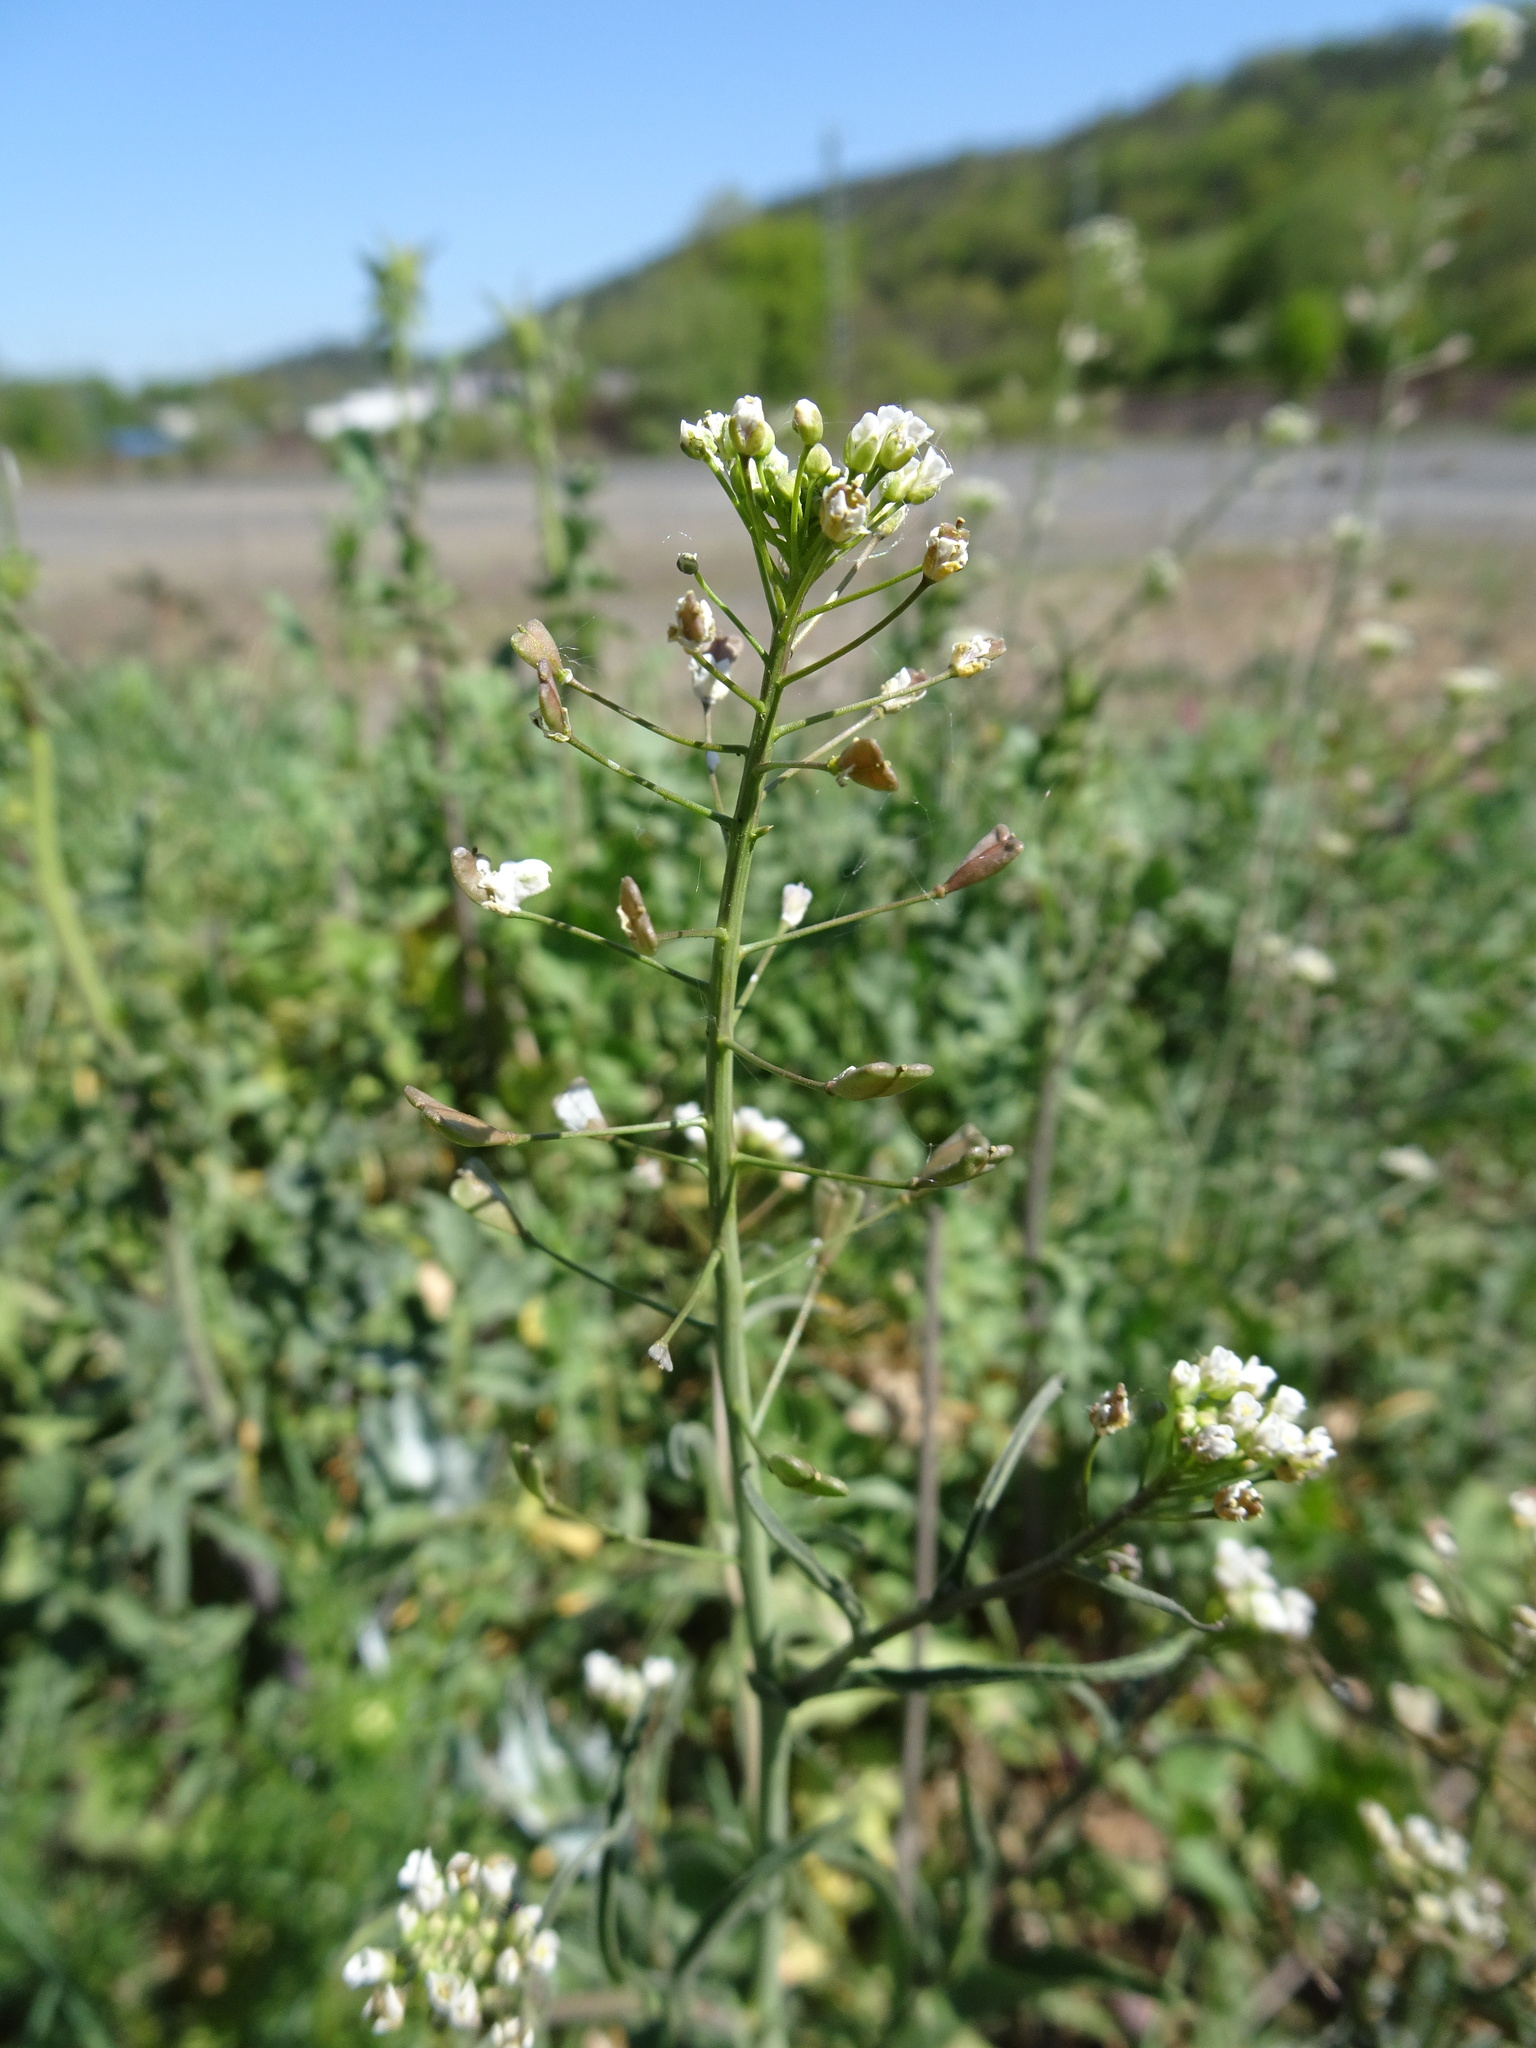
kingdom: Plantae
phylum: Tracheophyta
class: Magnoliopsida
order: Brassicales
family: Brassicaceae
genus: Capsella
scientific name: Capsella bursa-pastoris
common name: Shepherd's purse
